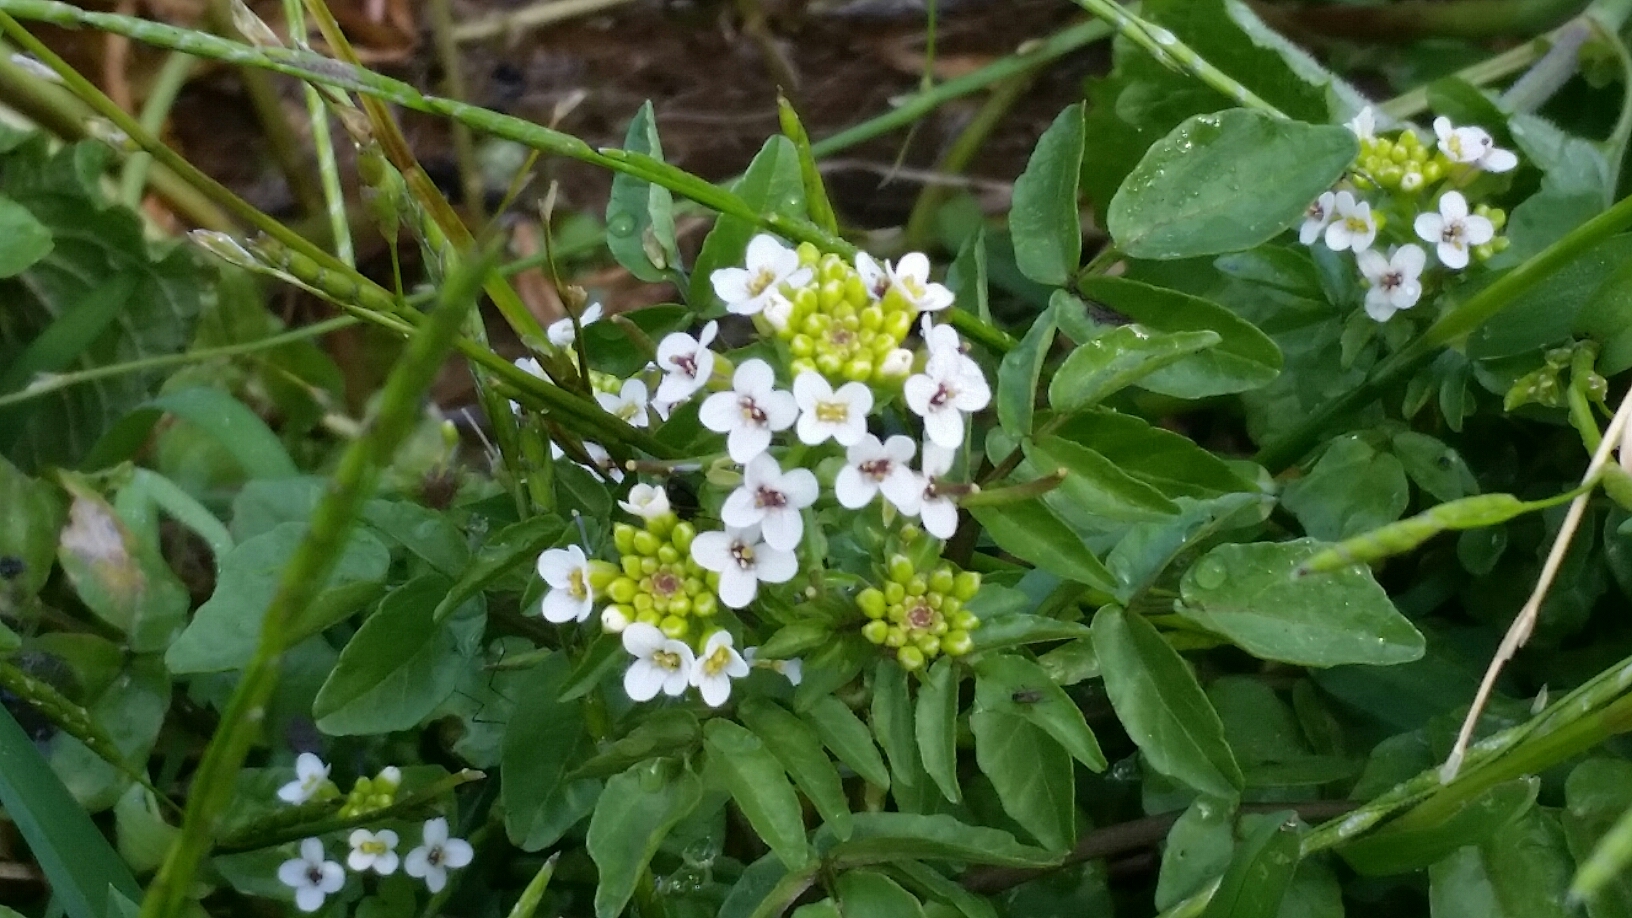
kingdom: Plantae
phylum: Tracheophyta
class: Magnoliopsida
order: Brassicales
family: Brassicaceae
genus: Nasturtium
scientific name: Nasturtium officinale
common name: Watercress
